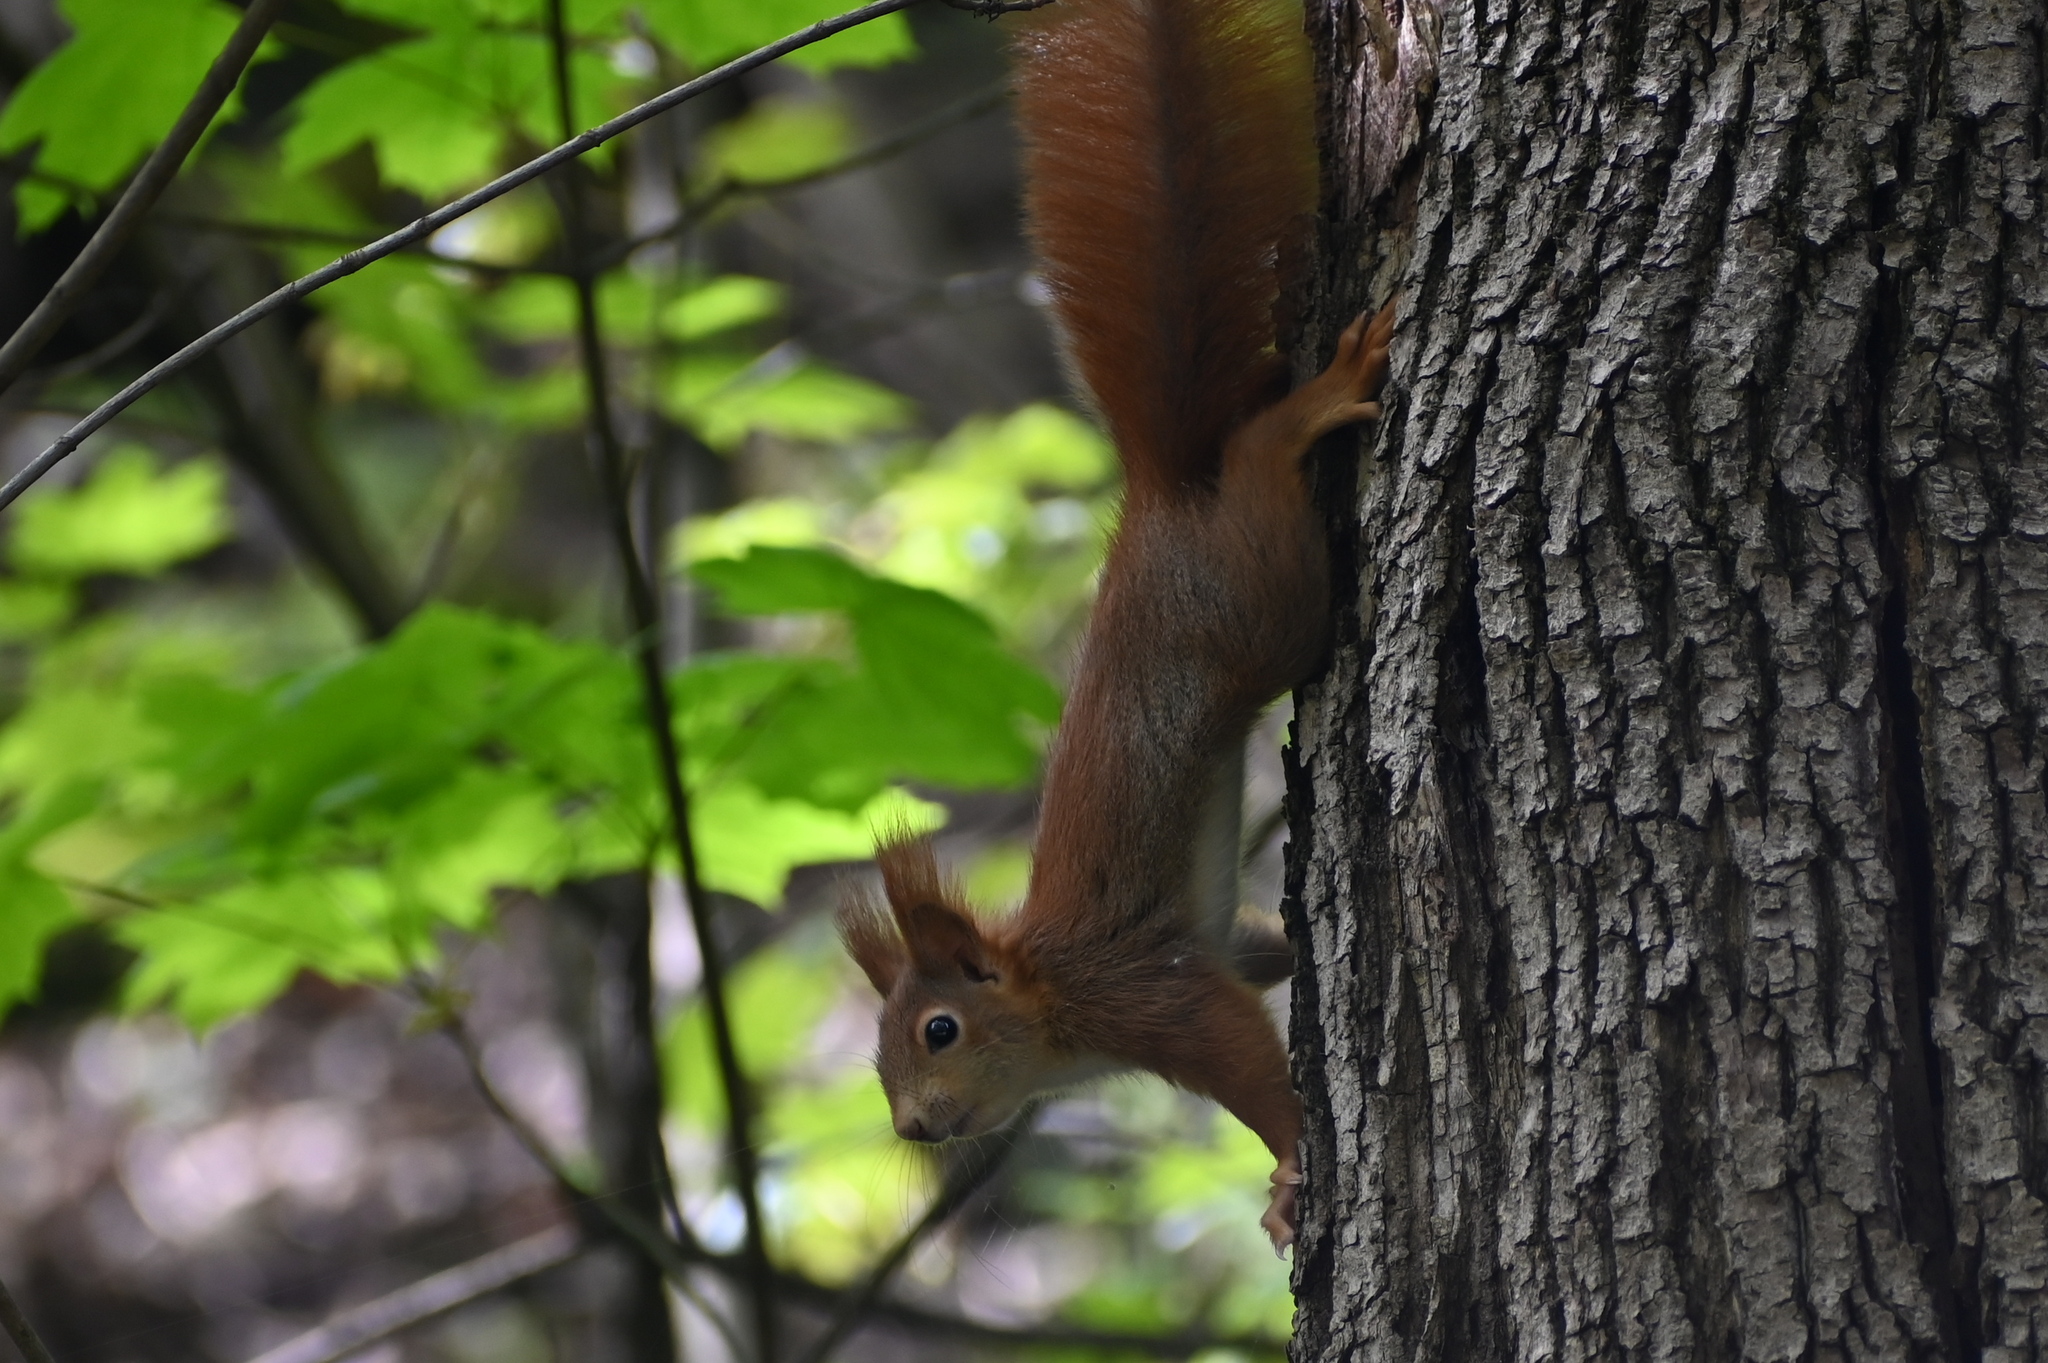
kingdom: Animalia
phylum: Chordata
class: Mammalia
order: Rodentia
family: Sciuridae
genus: Sciurus
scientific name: Sciurus vulgaris
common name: Eurasian red squirrel
